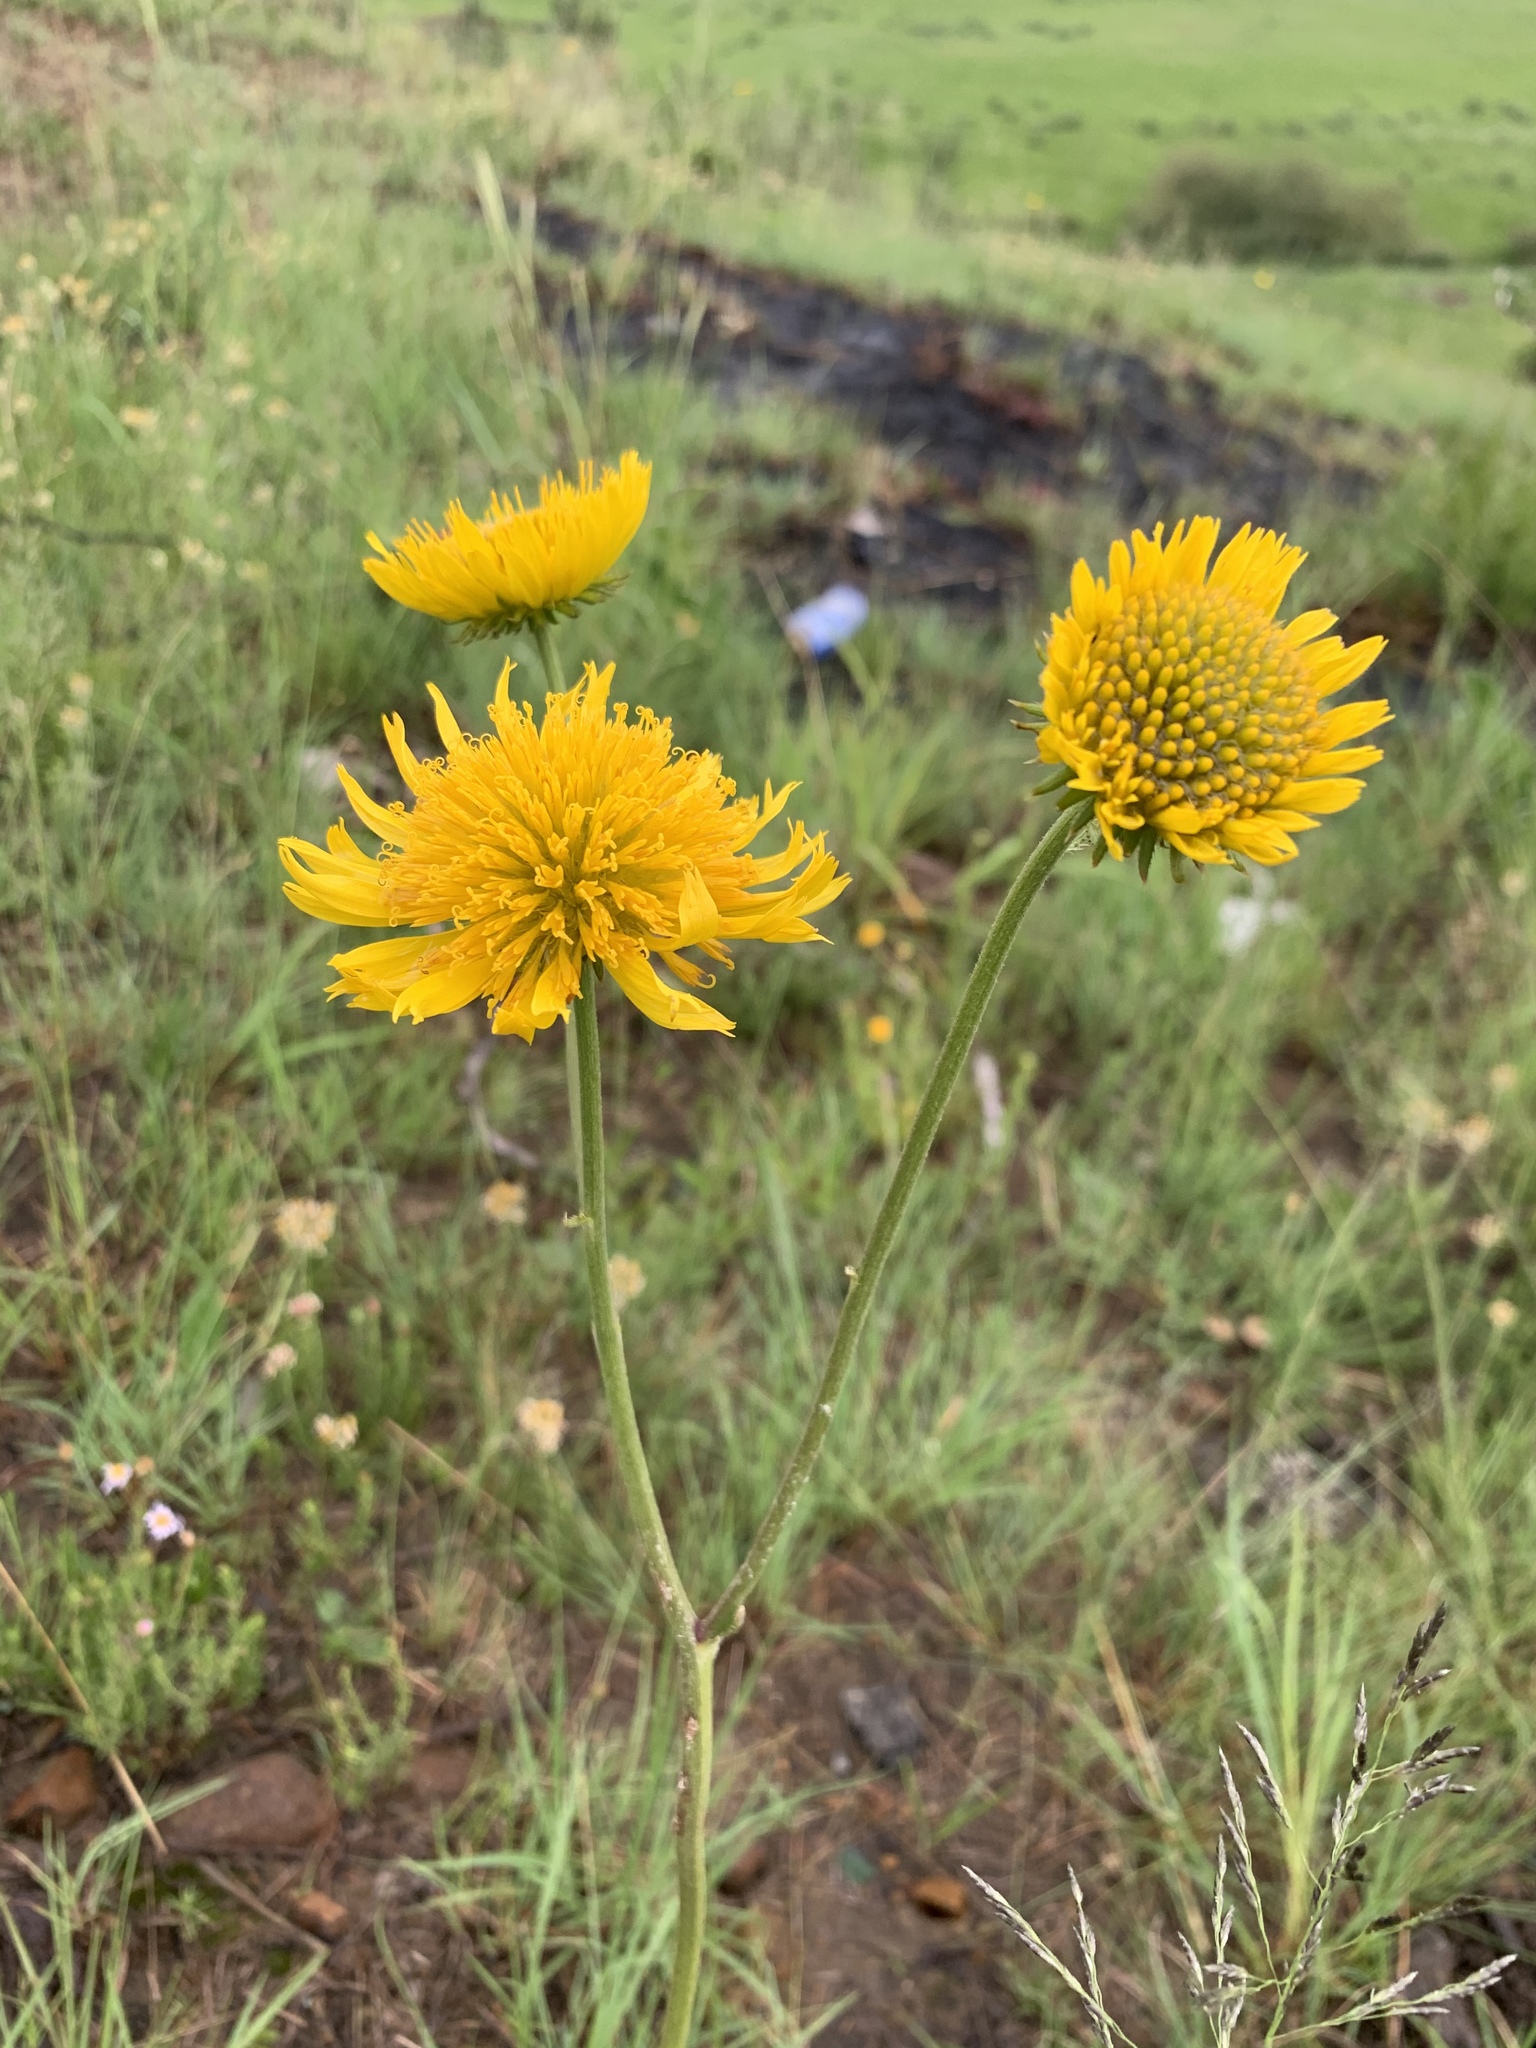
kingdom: Plantae
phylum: Tracheophyta
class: Magnoliopsida
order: Asterales
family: Asteraceae
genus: Berkheya
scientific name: Berkheya setifera
